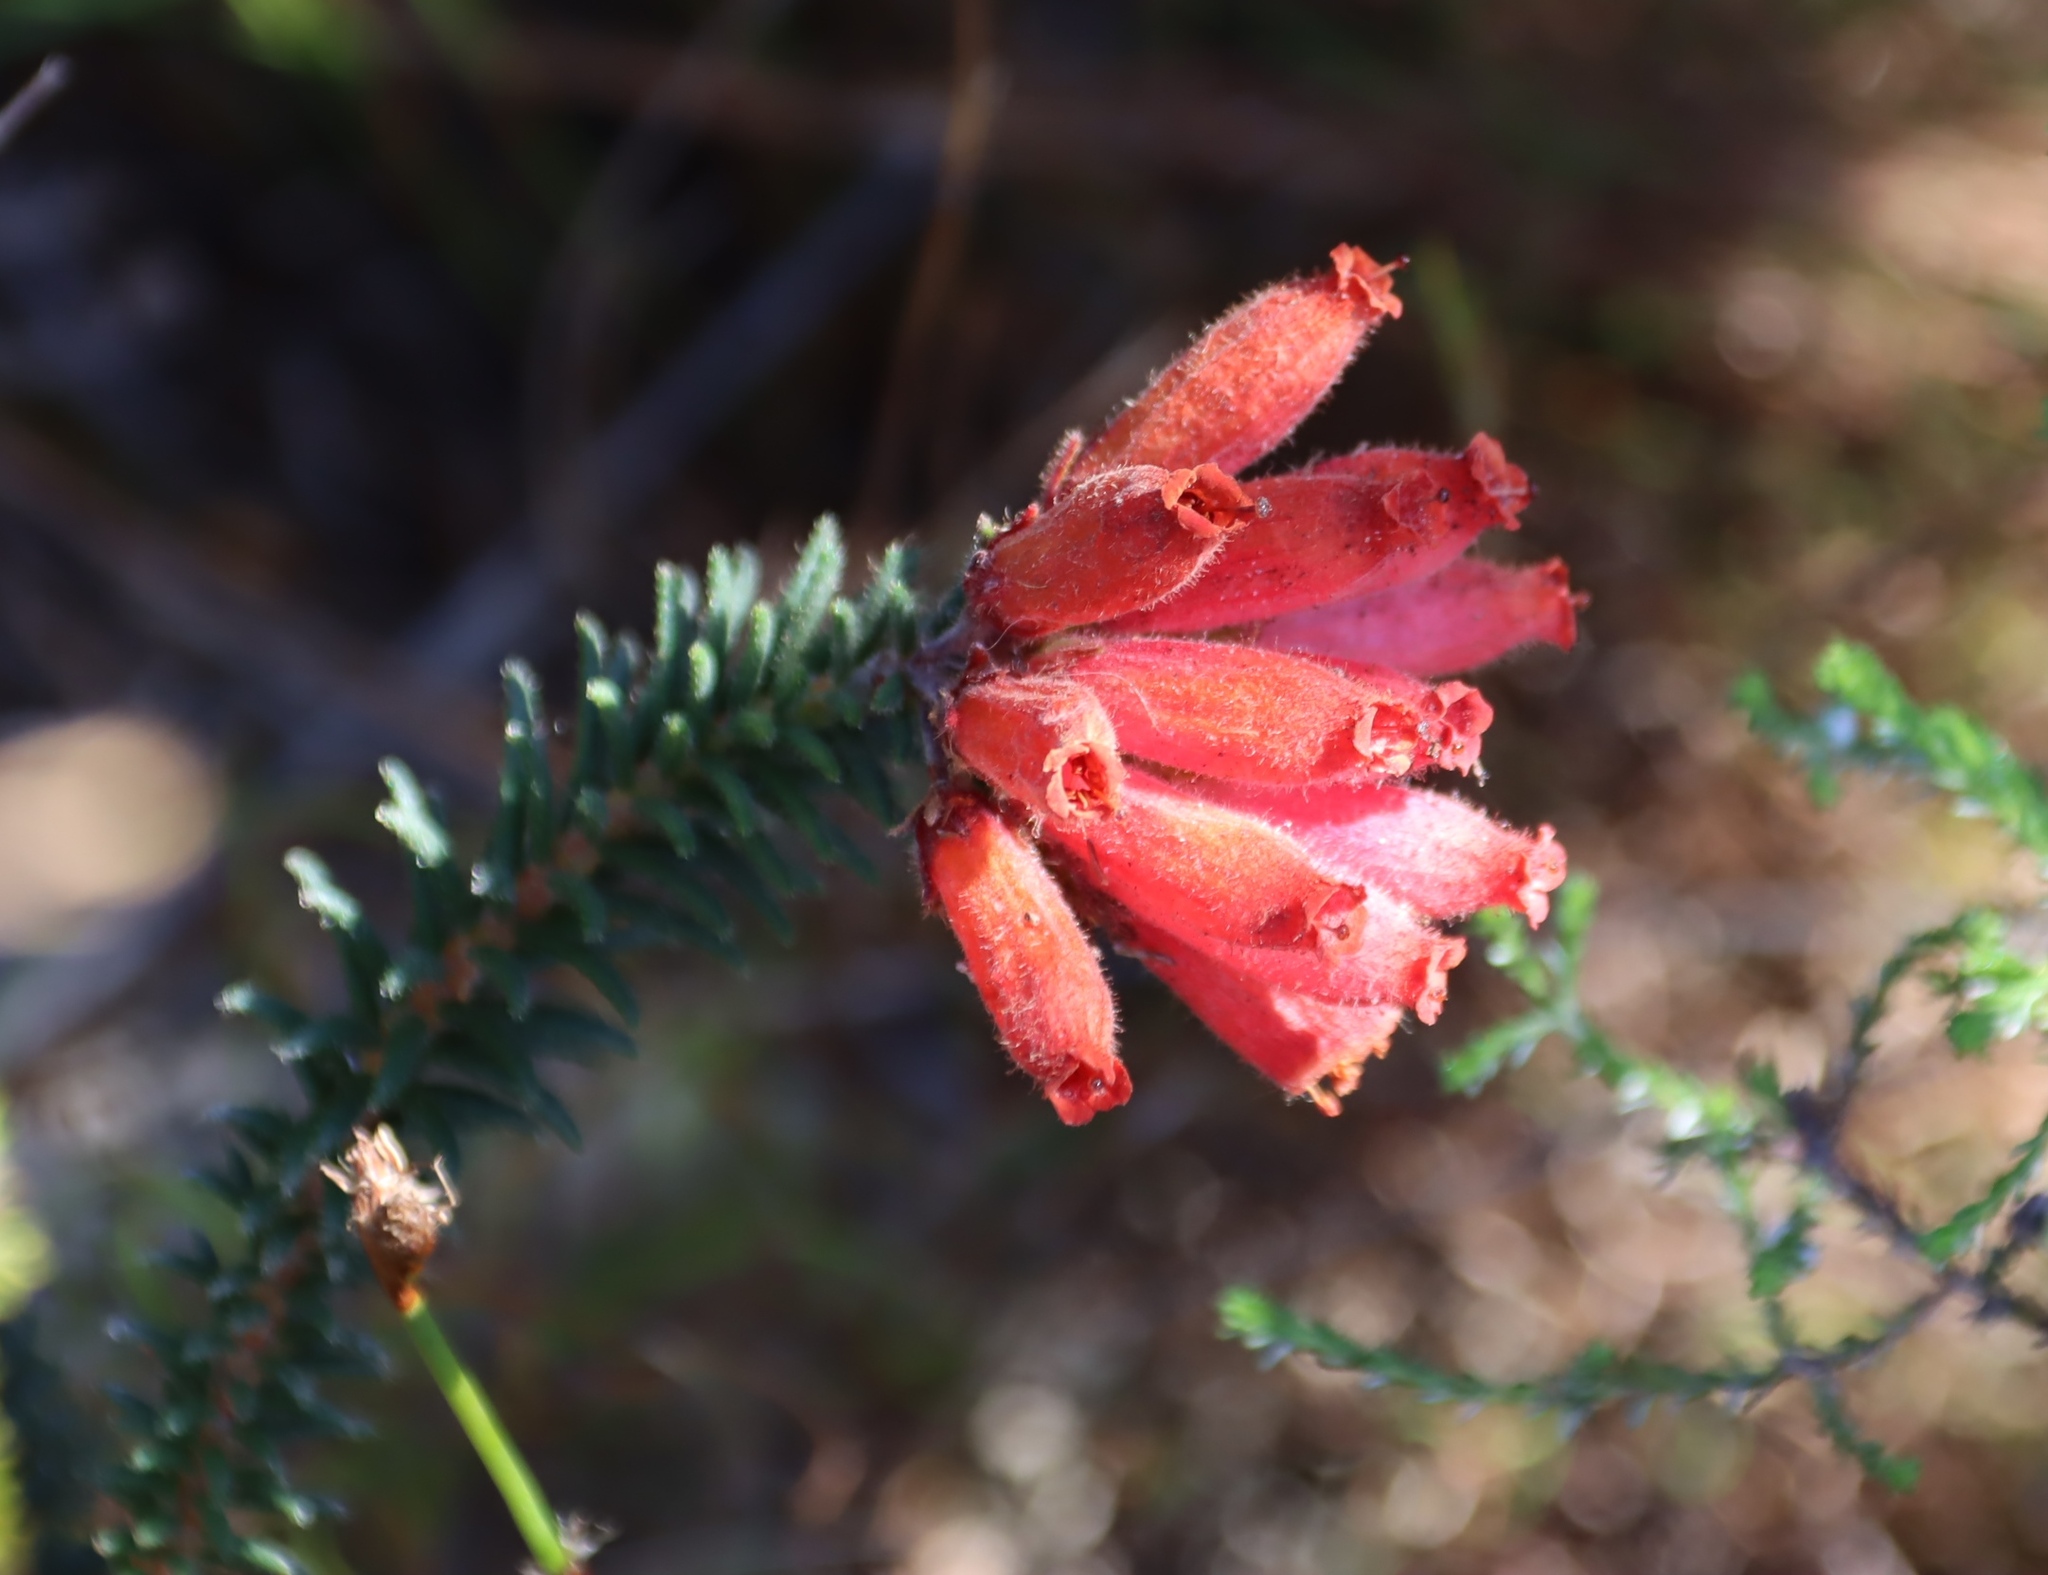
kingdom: Plantae
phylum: Tracheophyta
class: Magnoliopsida
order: Ericales
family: Ericaceae
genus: Erica
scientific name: Erica cerinthoides
